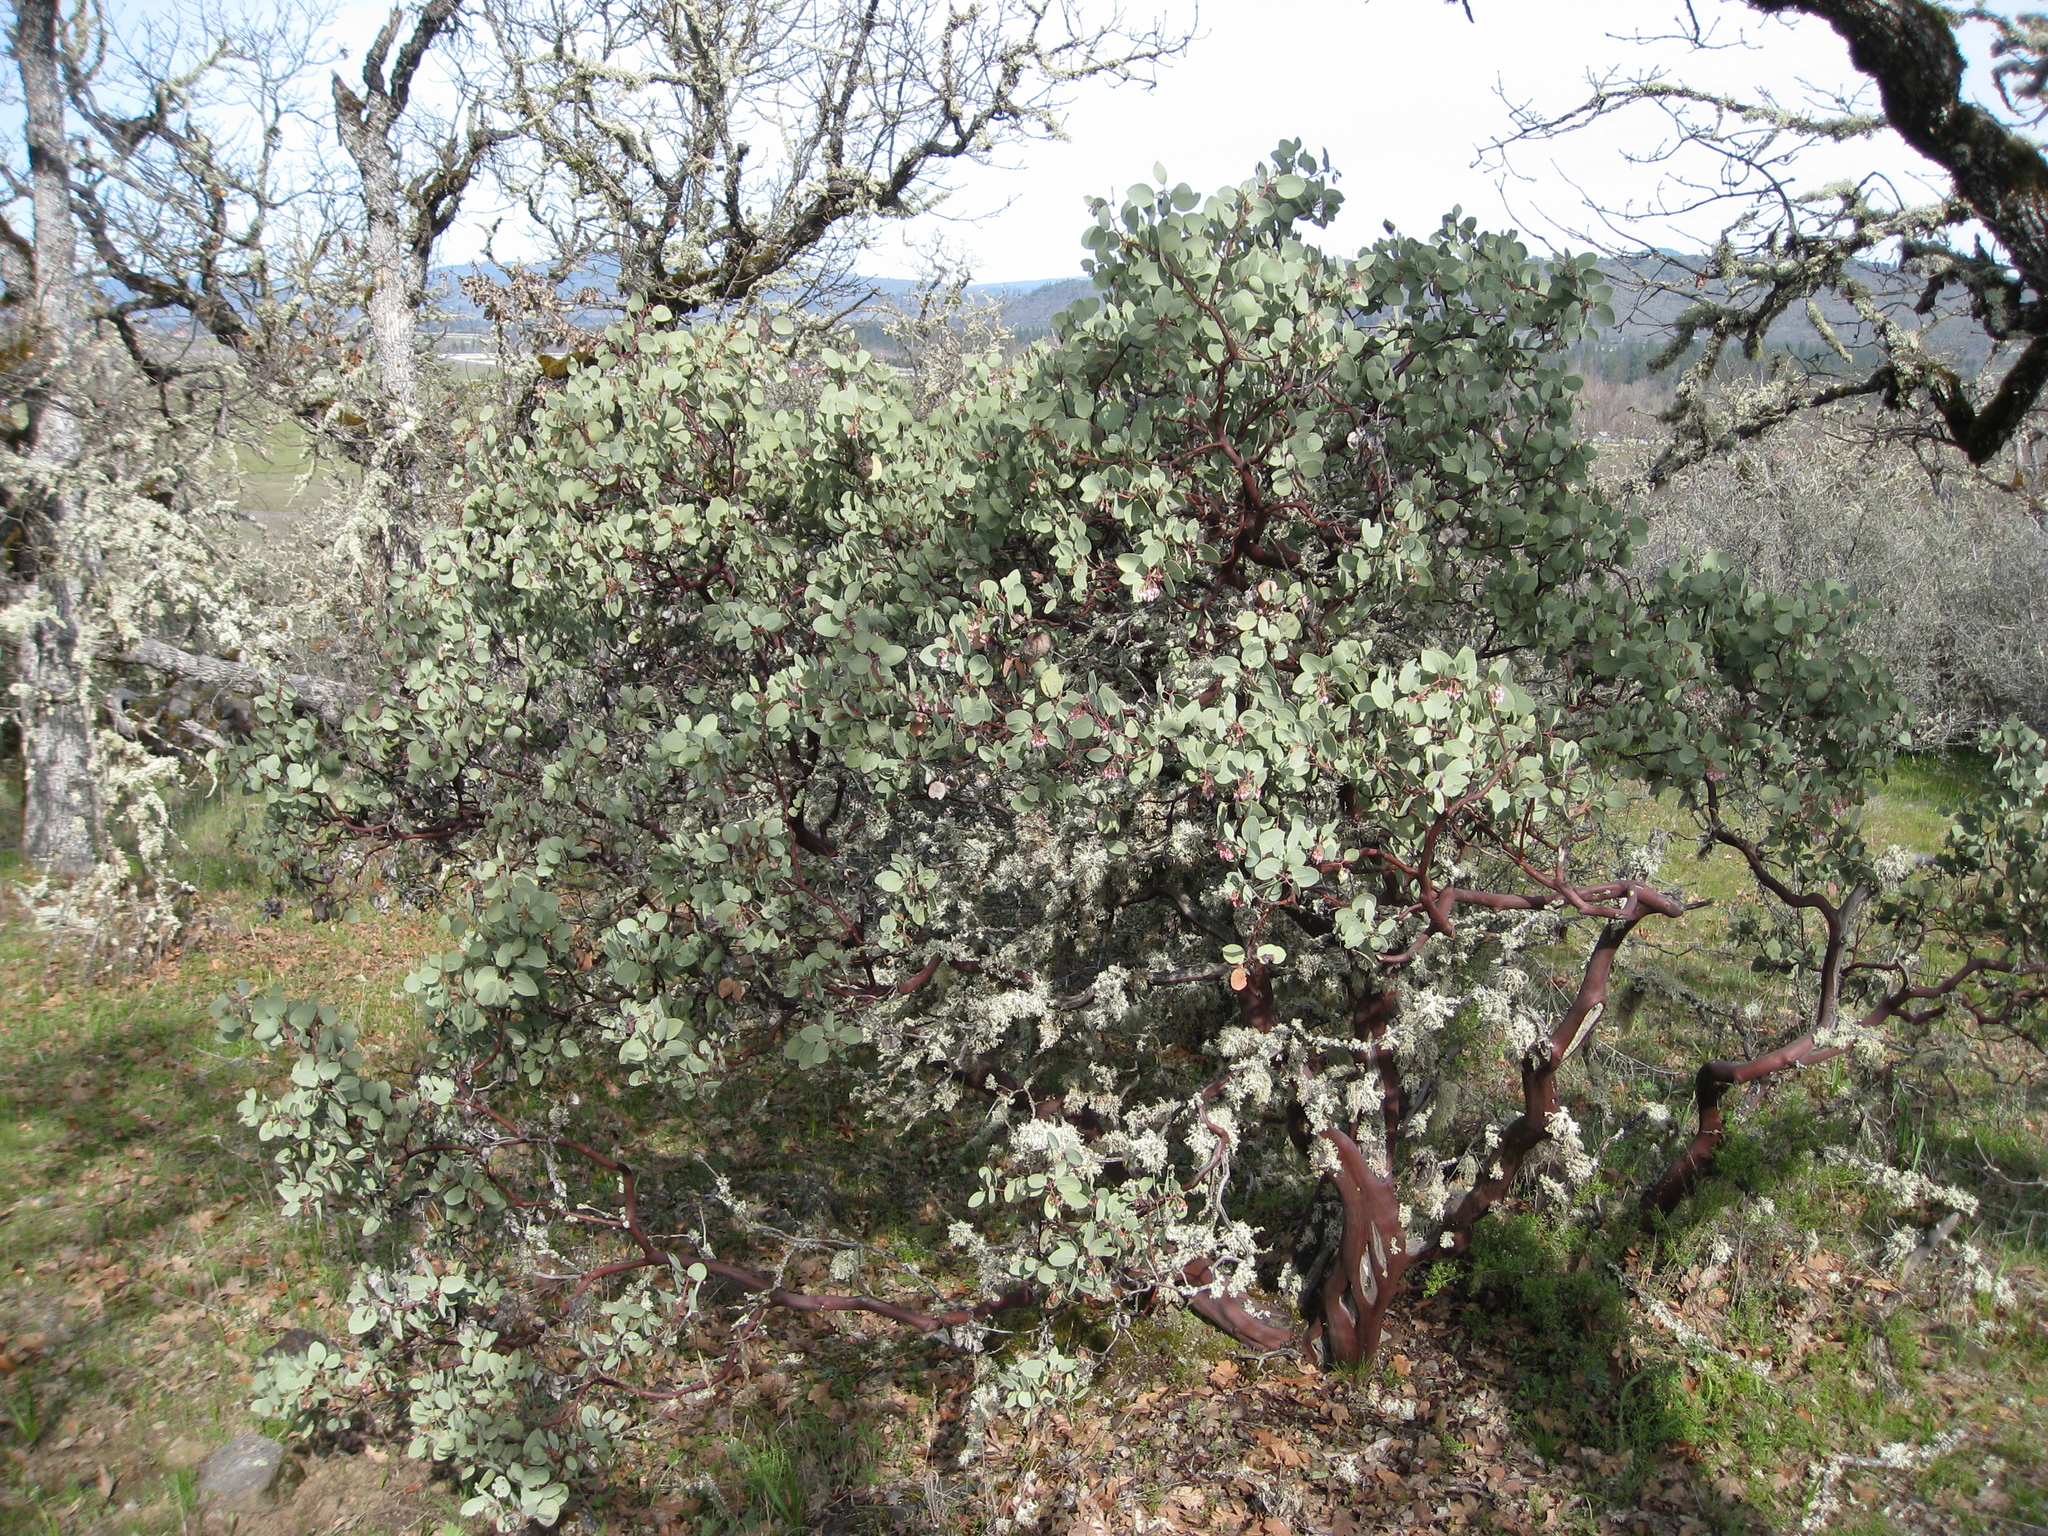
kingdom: Plantae
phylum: Tracheophyta
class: Magnoliopsida
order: Ericales
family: Ericaceae
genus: Arctostaphylos
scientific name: Arctostaphylos viscida
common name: White-leaf manzanita
